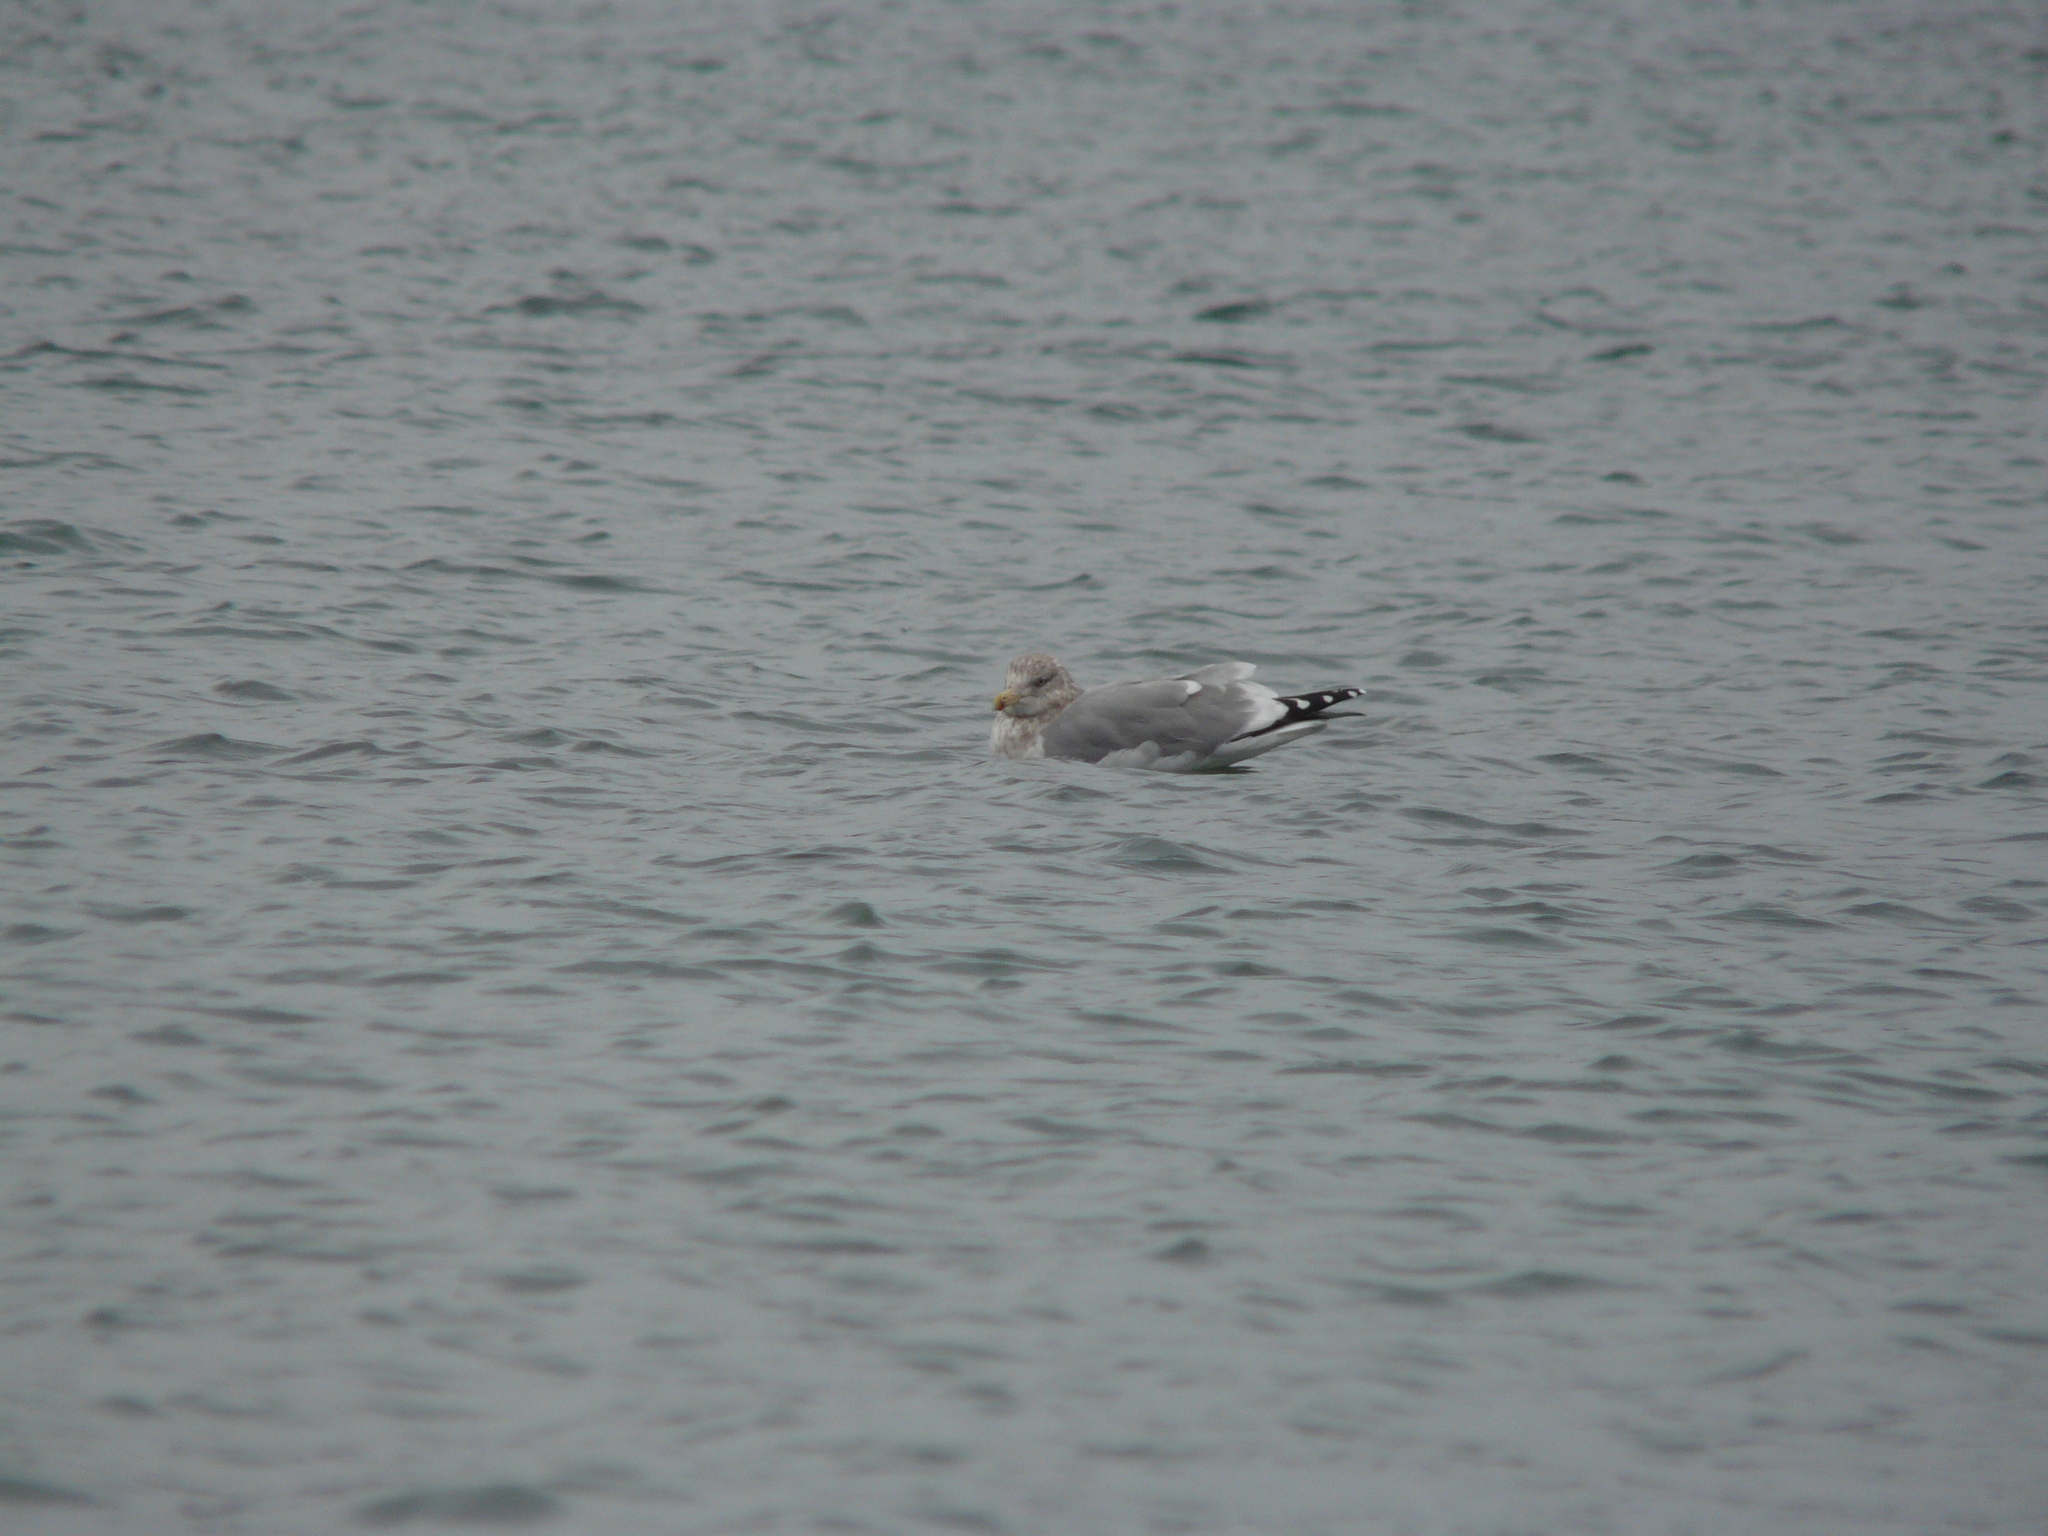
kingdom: Animalia
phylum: Chordata
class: Aves
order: Charadriiformes
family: Laridae
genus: Larus
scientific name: Larus smithsonianus
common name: American herring gull
